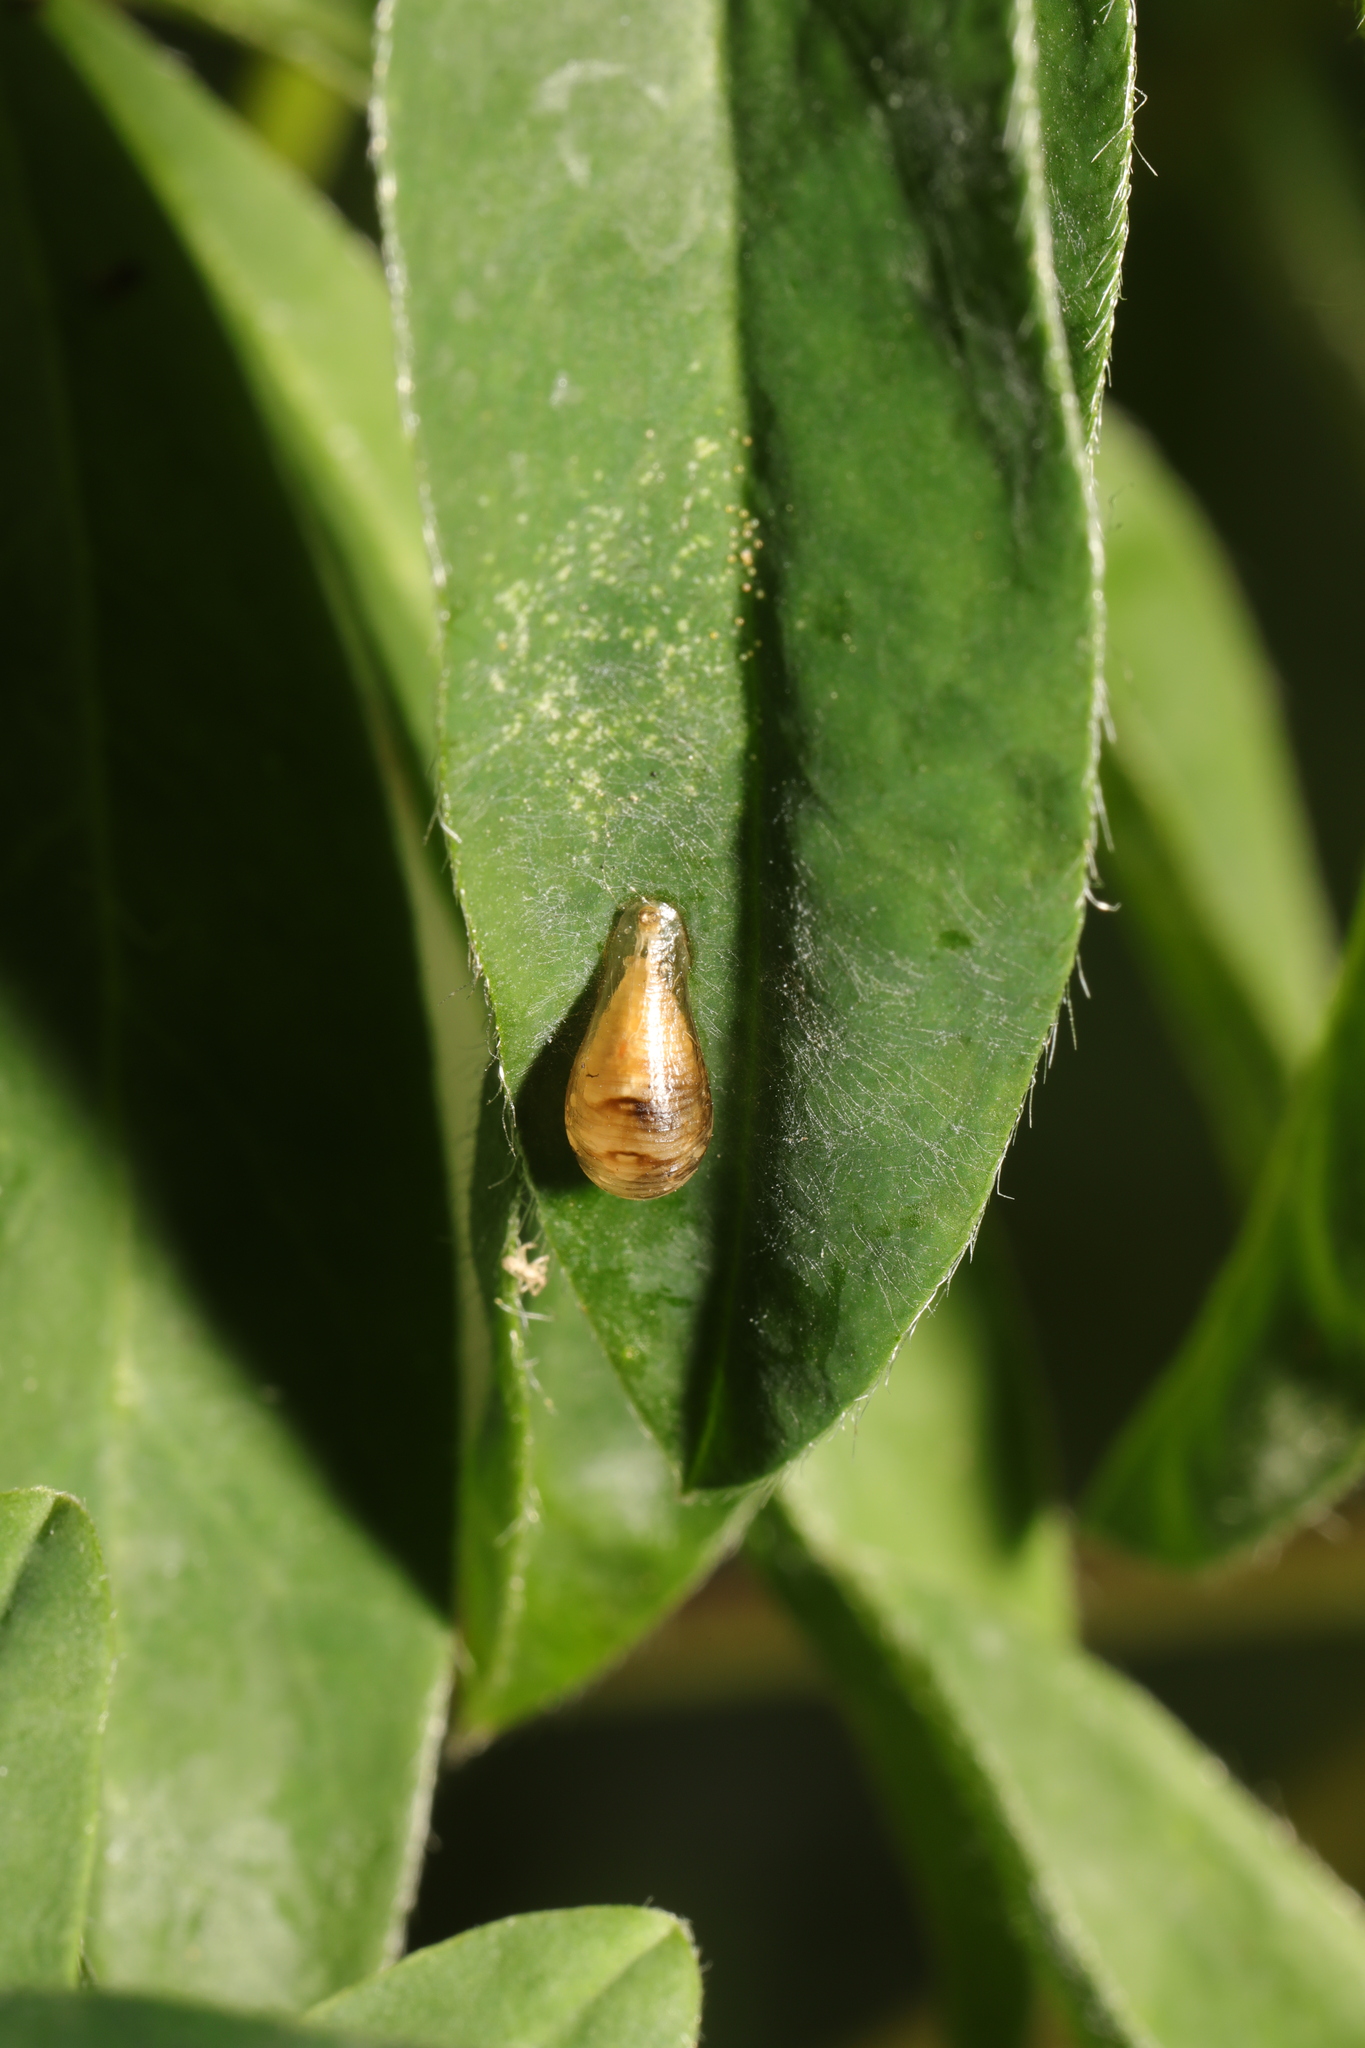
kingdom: Animalia
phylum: Arthropoda
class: Insecta
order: Diptera
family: Syrphidae
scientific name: Syrphidae
